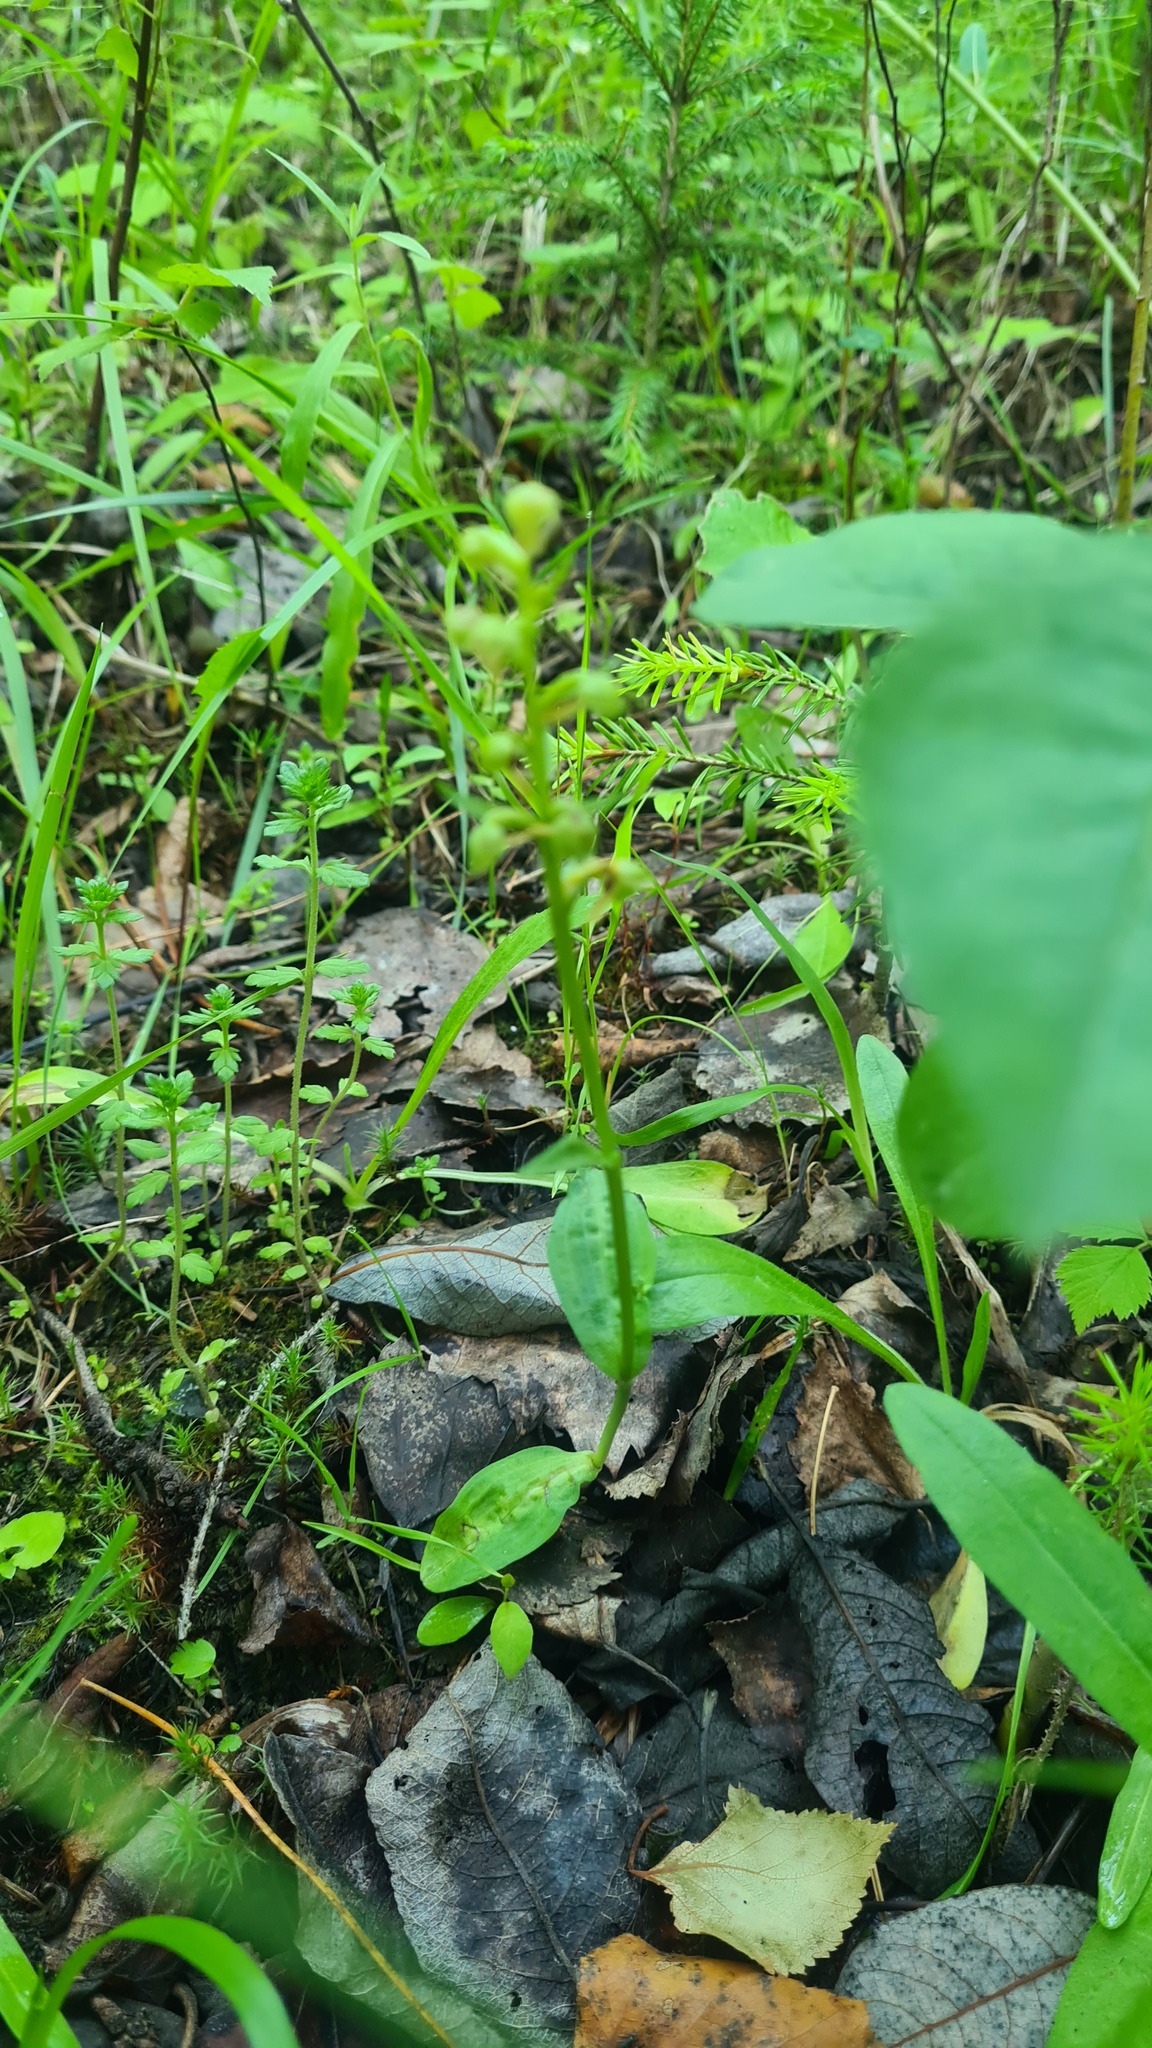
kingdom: Plantae
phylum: Tracheophyta
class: Liliopsida
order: Asparagales
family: Orchidaceae
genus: Dactylorhiza
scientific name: Dactylorhiza viridis
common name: Longbract frog orchid
